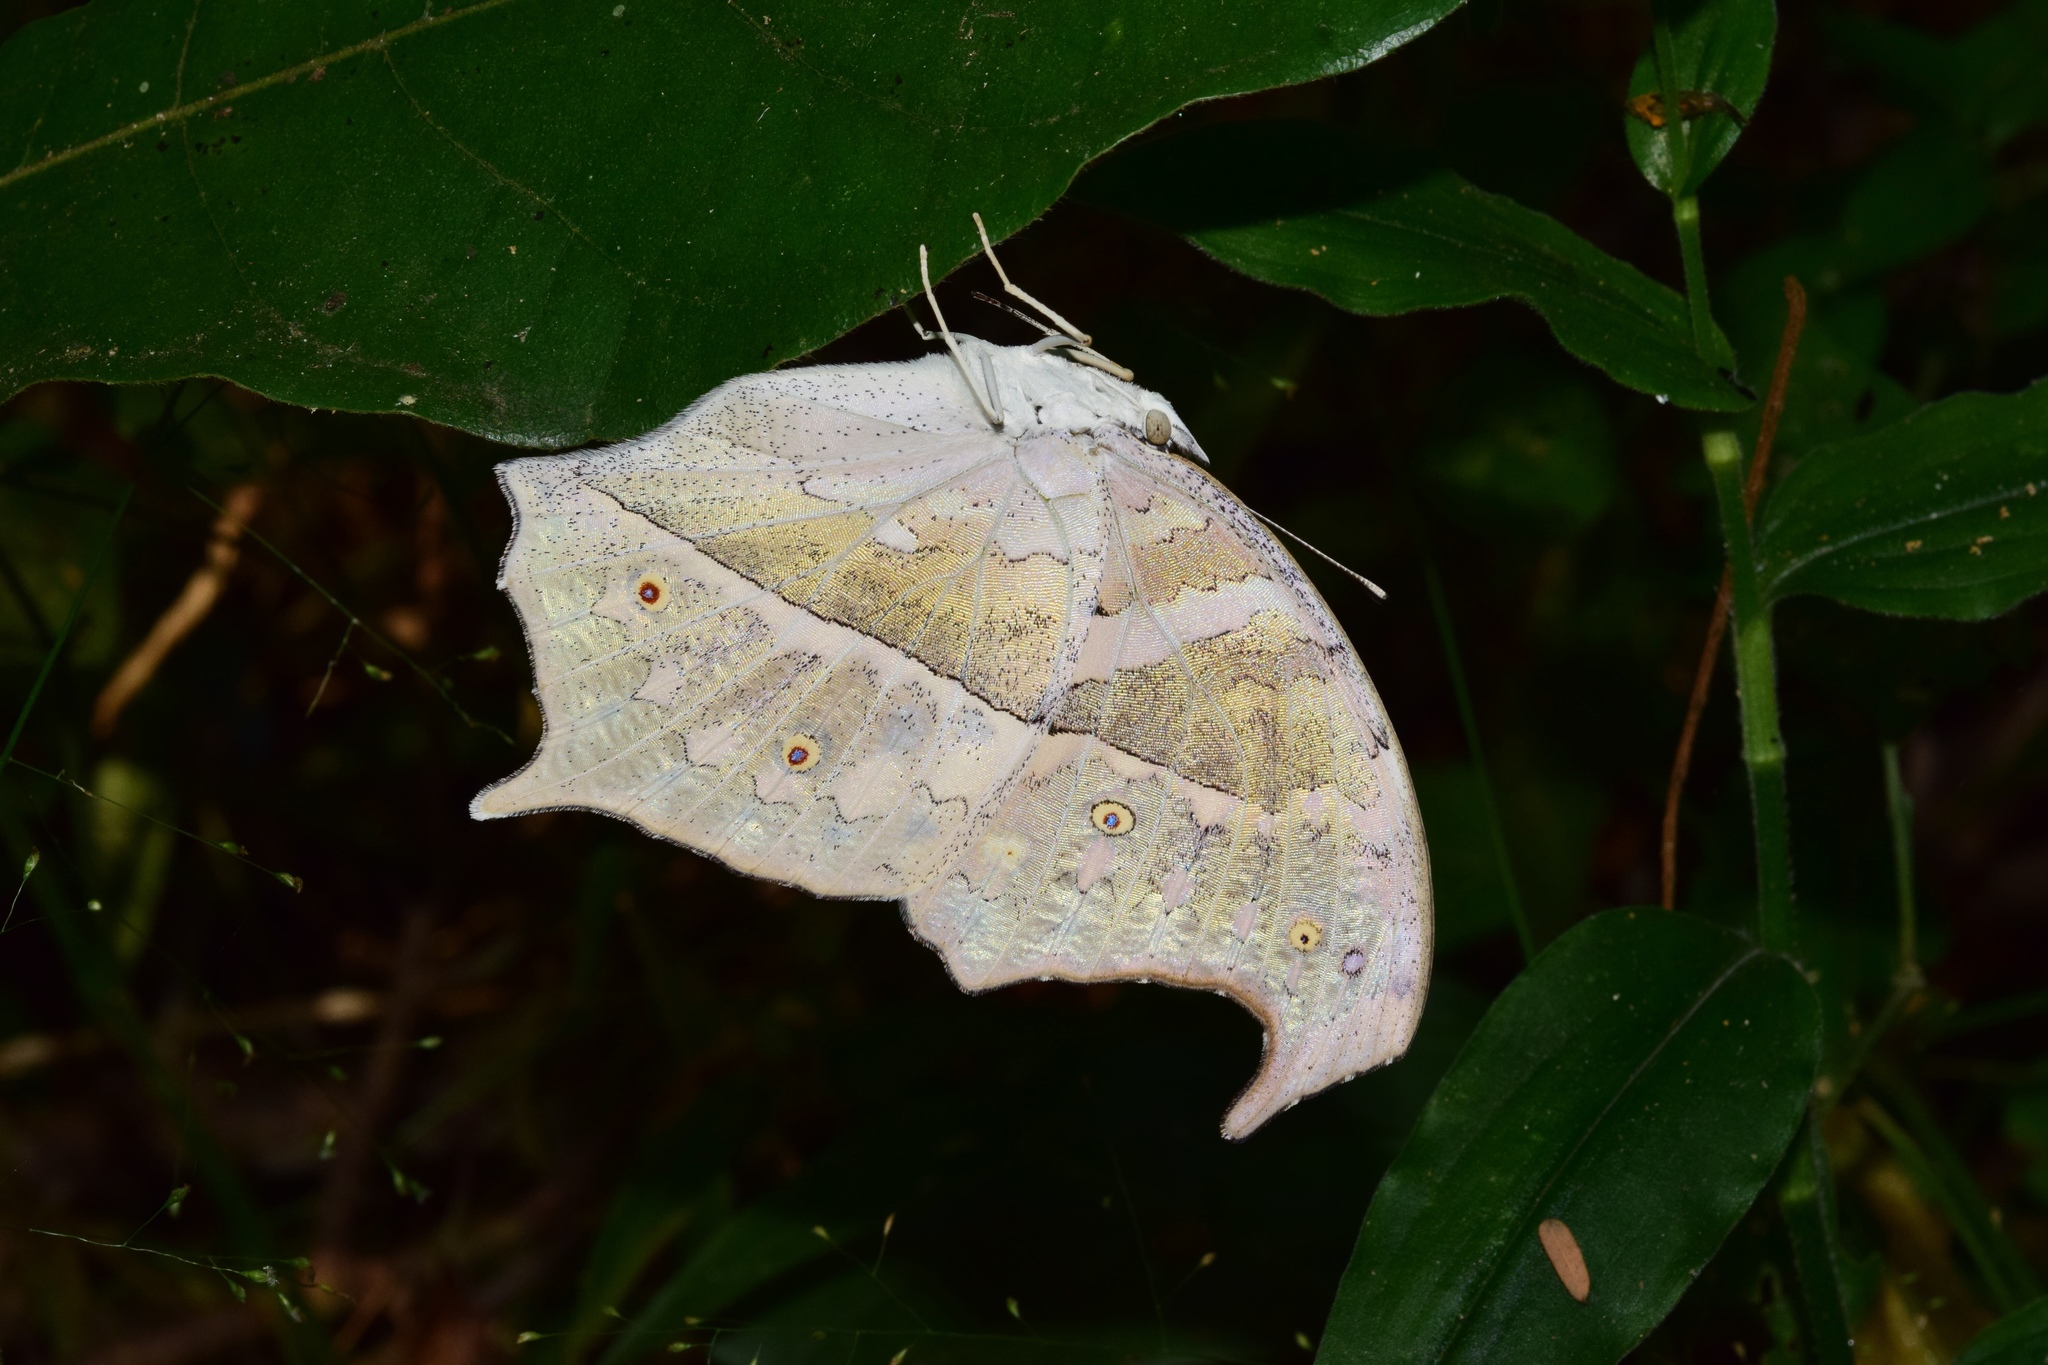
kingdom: Animalia
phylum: Arthropoda
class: Insecta
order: Lepidoptera
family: Nymphalidae
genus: Salamis
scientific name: Salamis Protogoniomorpha parhassus
